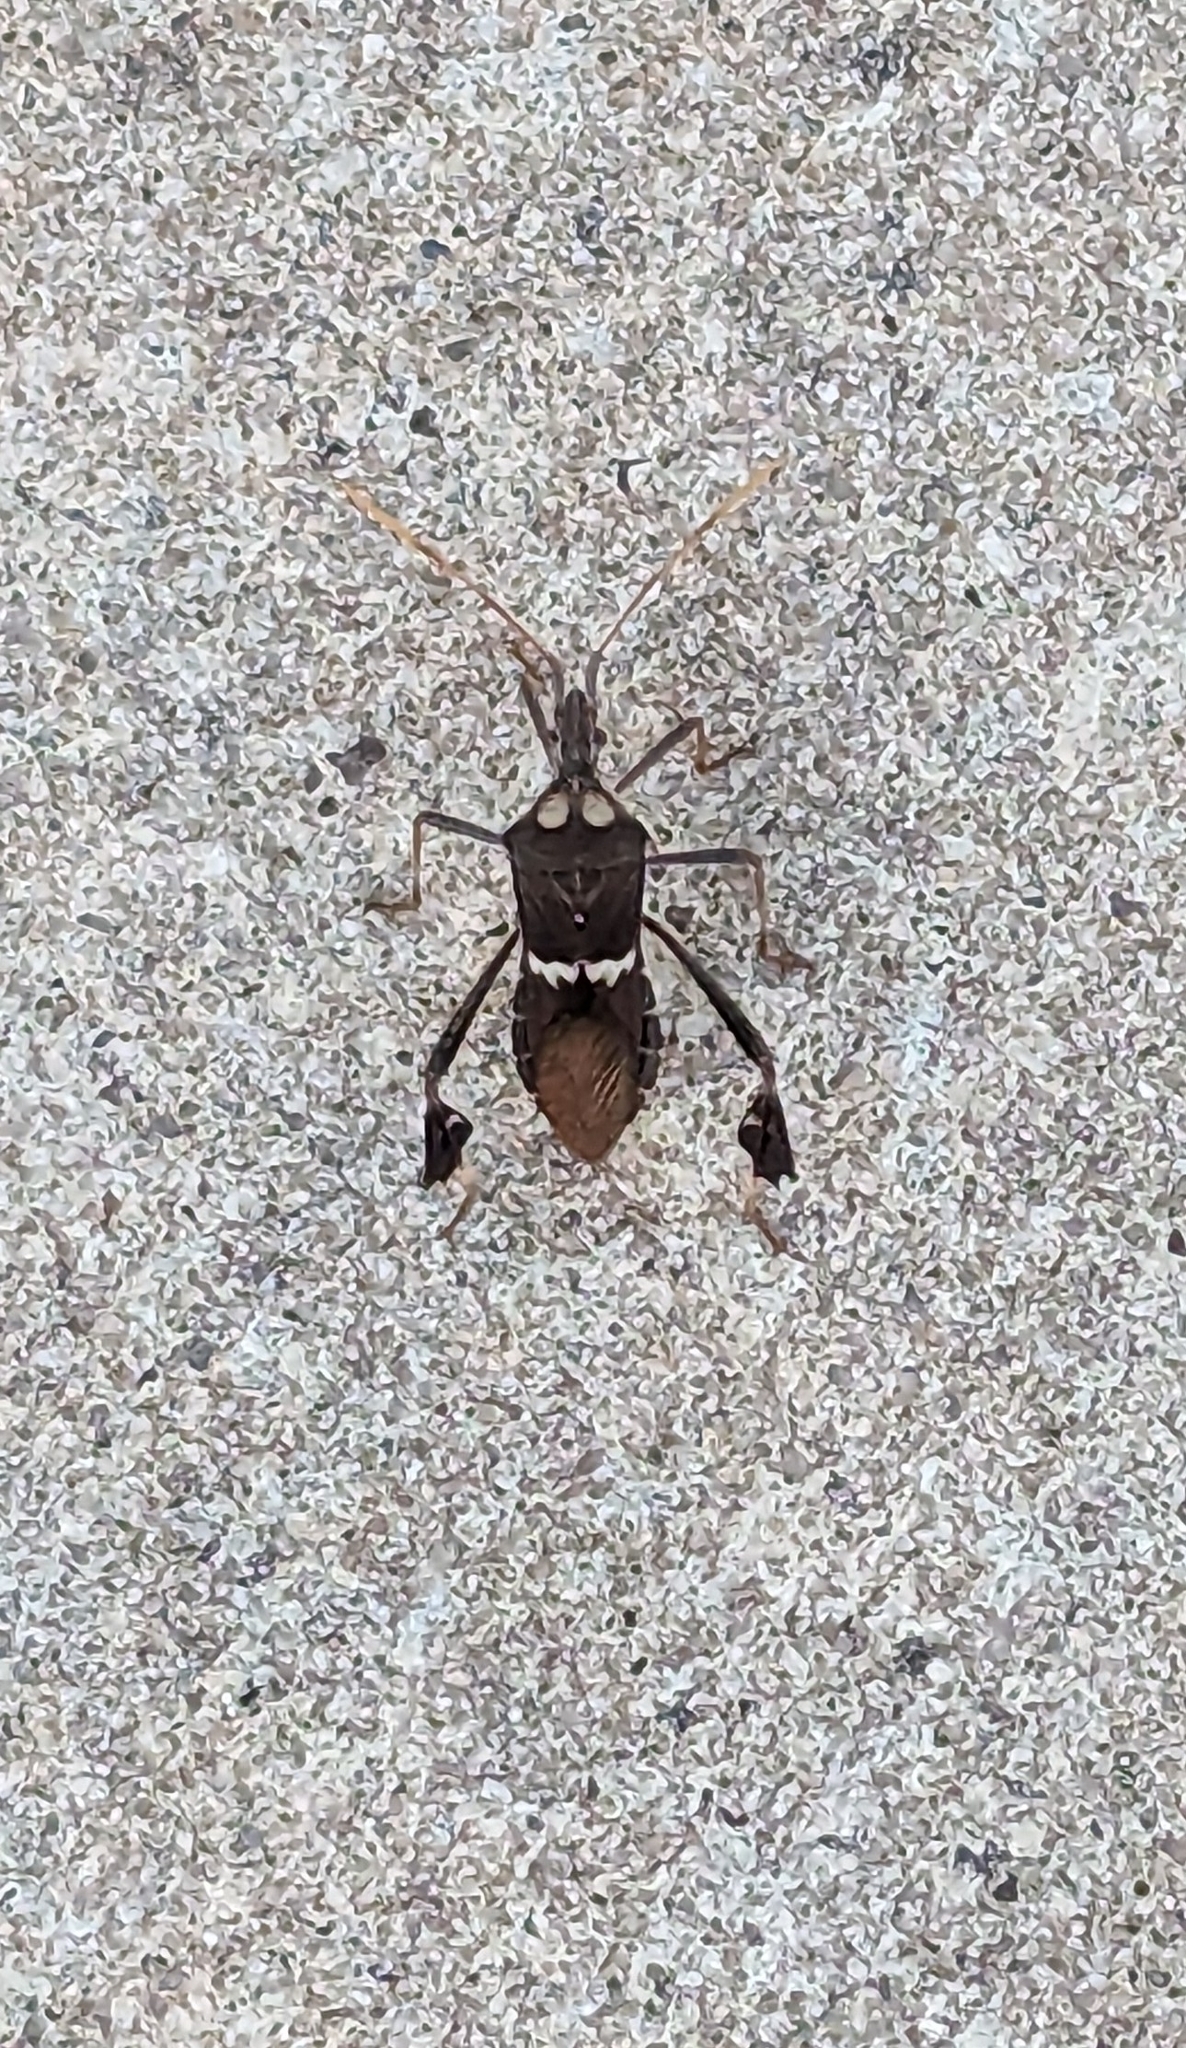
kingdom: Animalia
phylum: Arthropoda
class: Insecta
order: Hemiptera
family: Coreidae
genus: Leptoglossus
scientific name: Leptoglossus zonatus
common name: Large-legged bug
